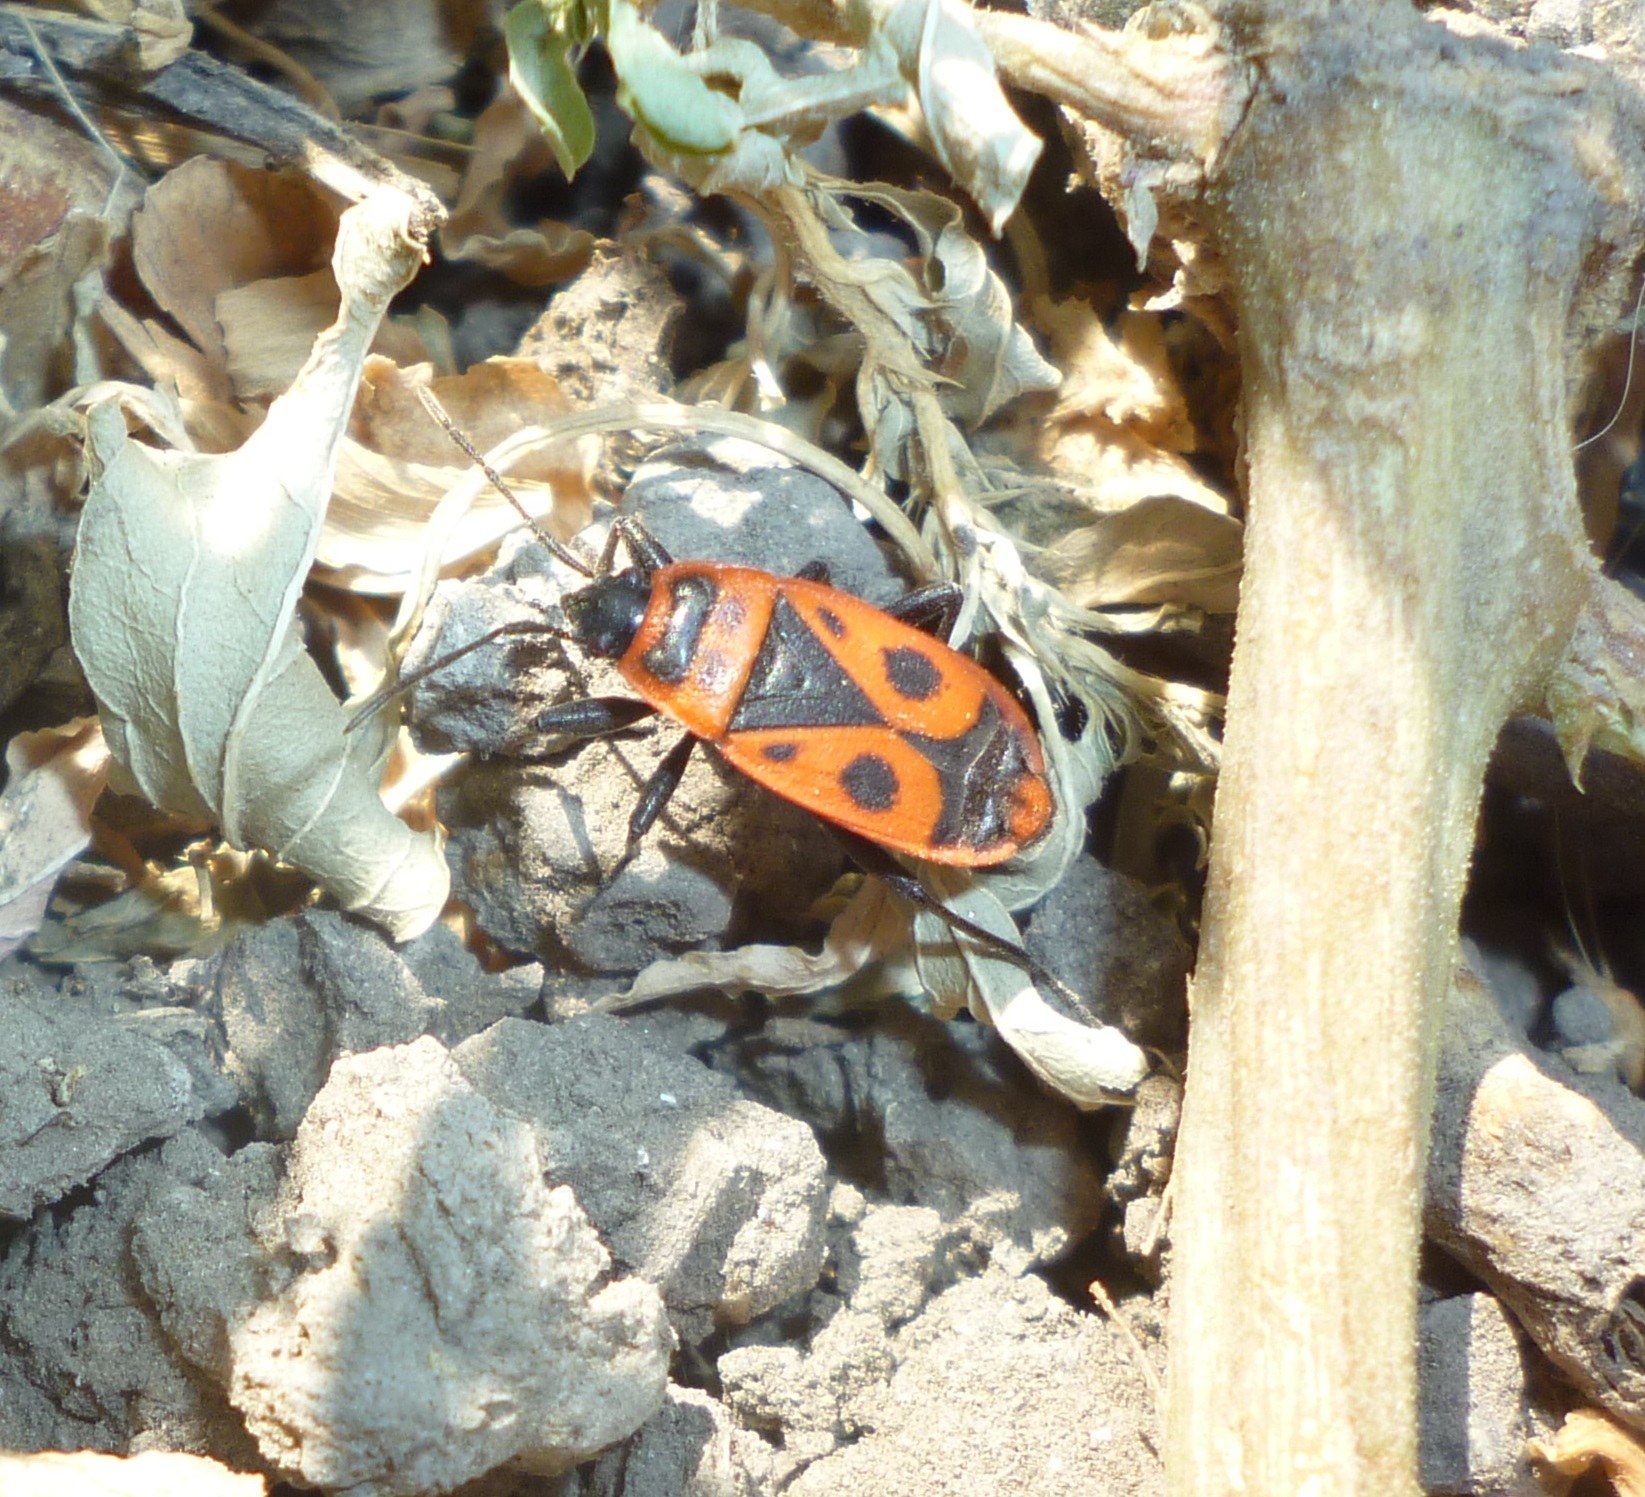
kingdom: Animalia
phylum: Arthropoda
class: Insecta
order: Hemiptera
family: Pyrrhocoridae
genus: Pyrrhocoris
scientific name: Pyrrhocoris apterus
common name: Firebug
